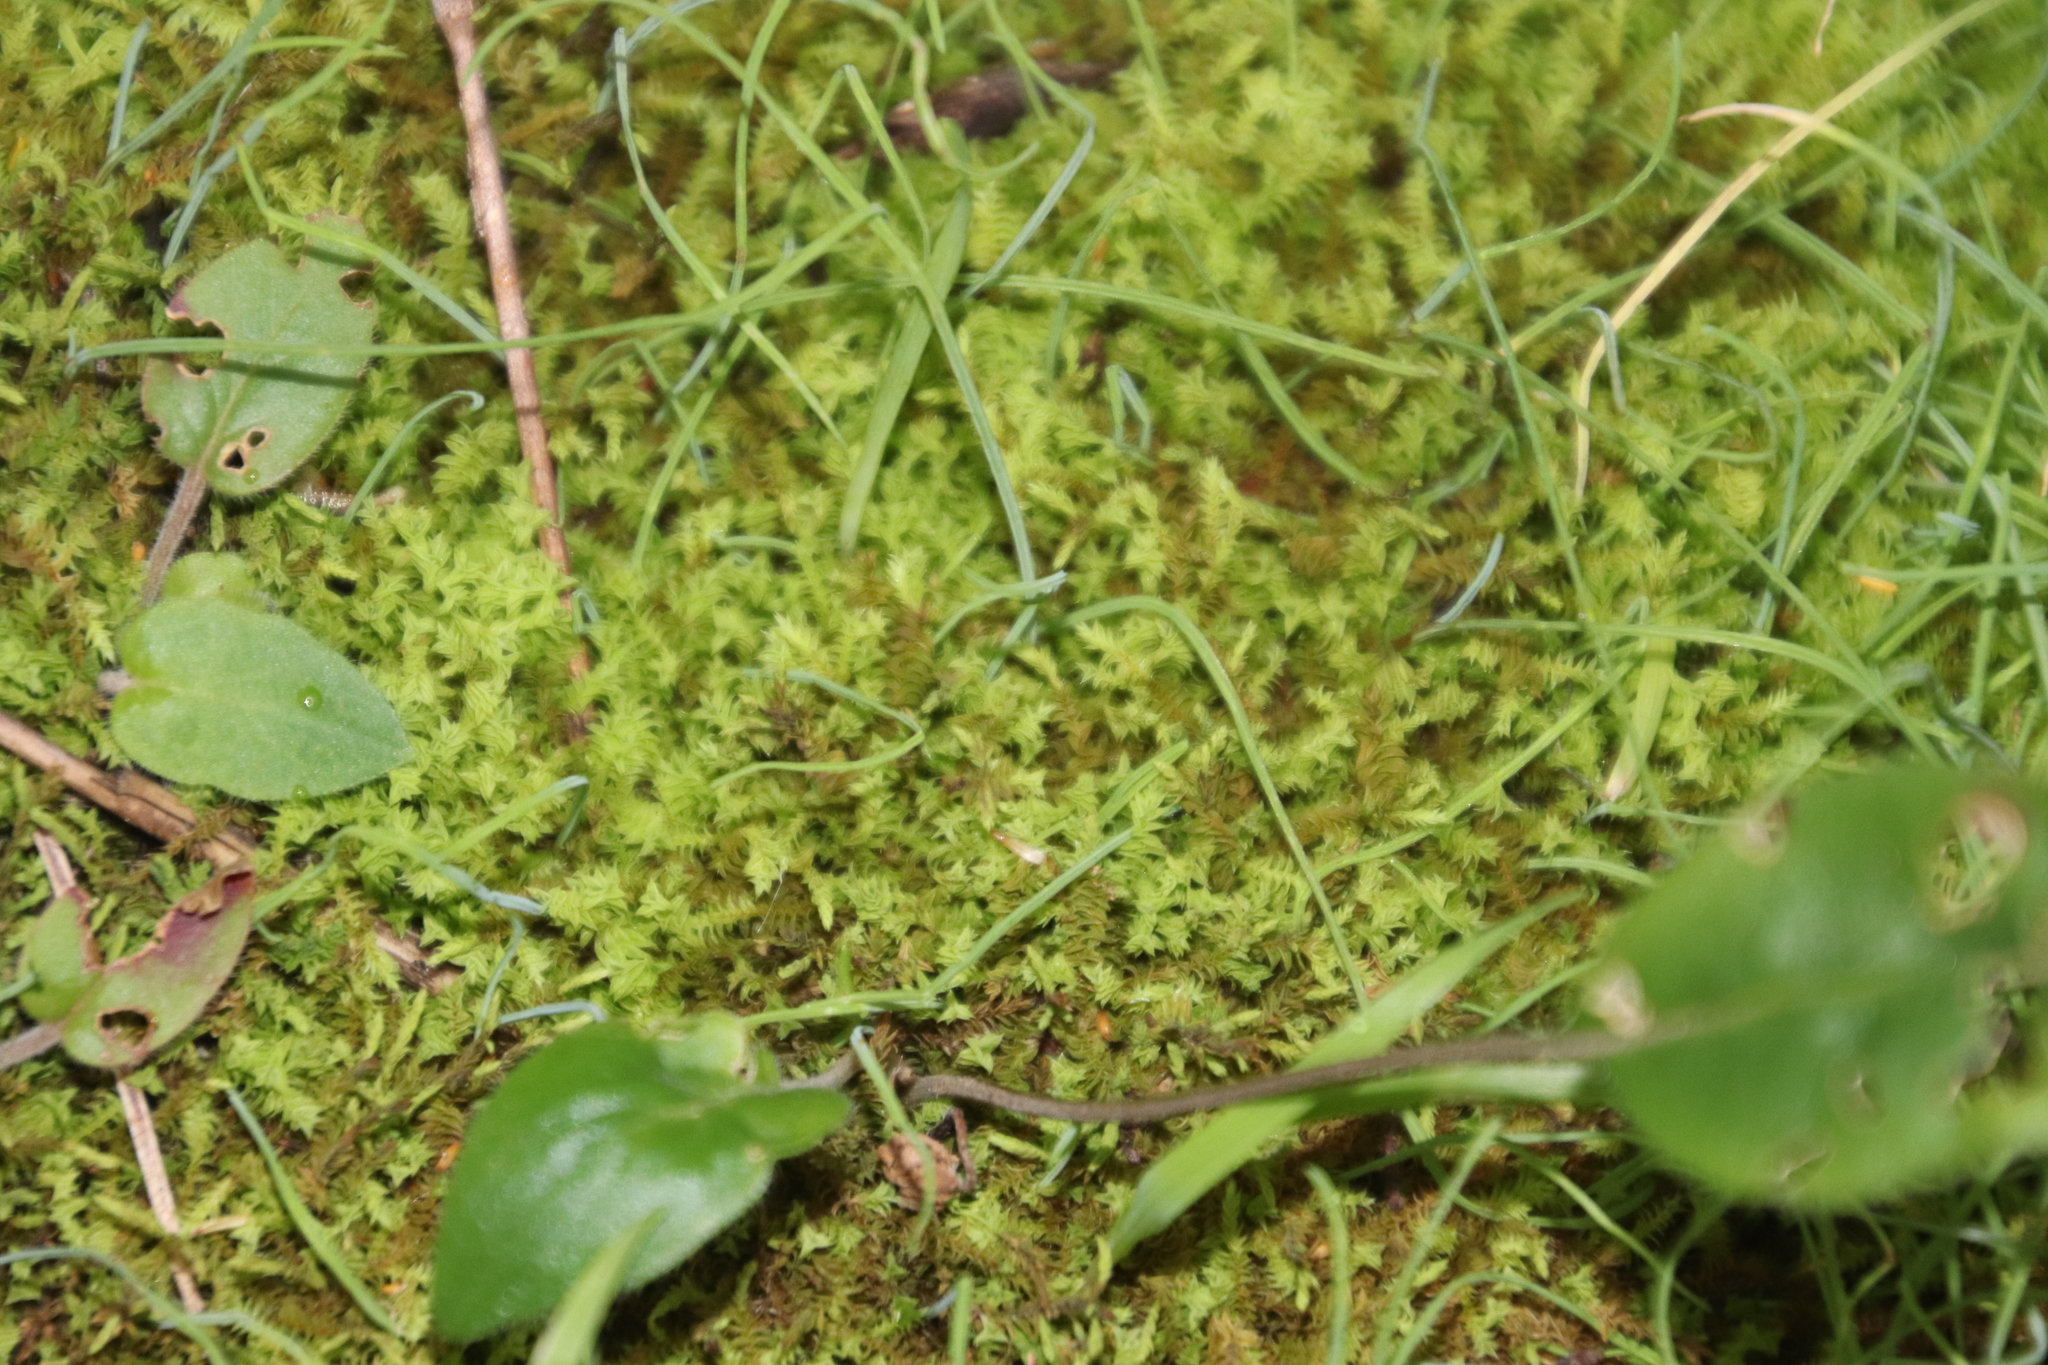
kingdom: Plantae
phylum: Bryophyta
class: Bryopsida
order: Pottiales
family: Pottiaceae
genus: Triquetrella
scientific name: Triquetrella mxinwana
